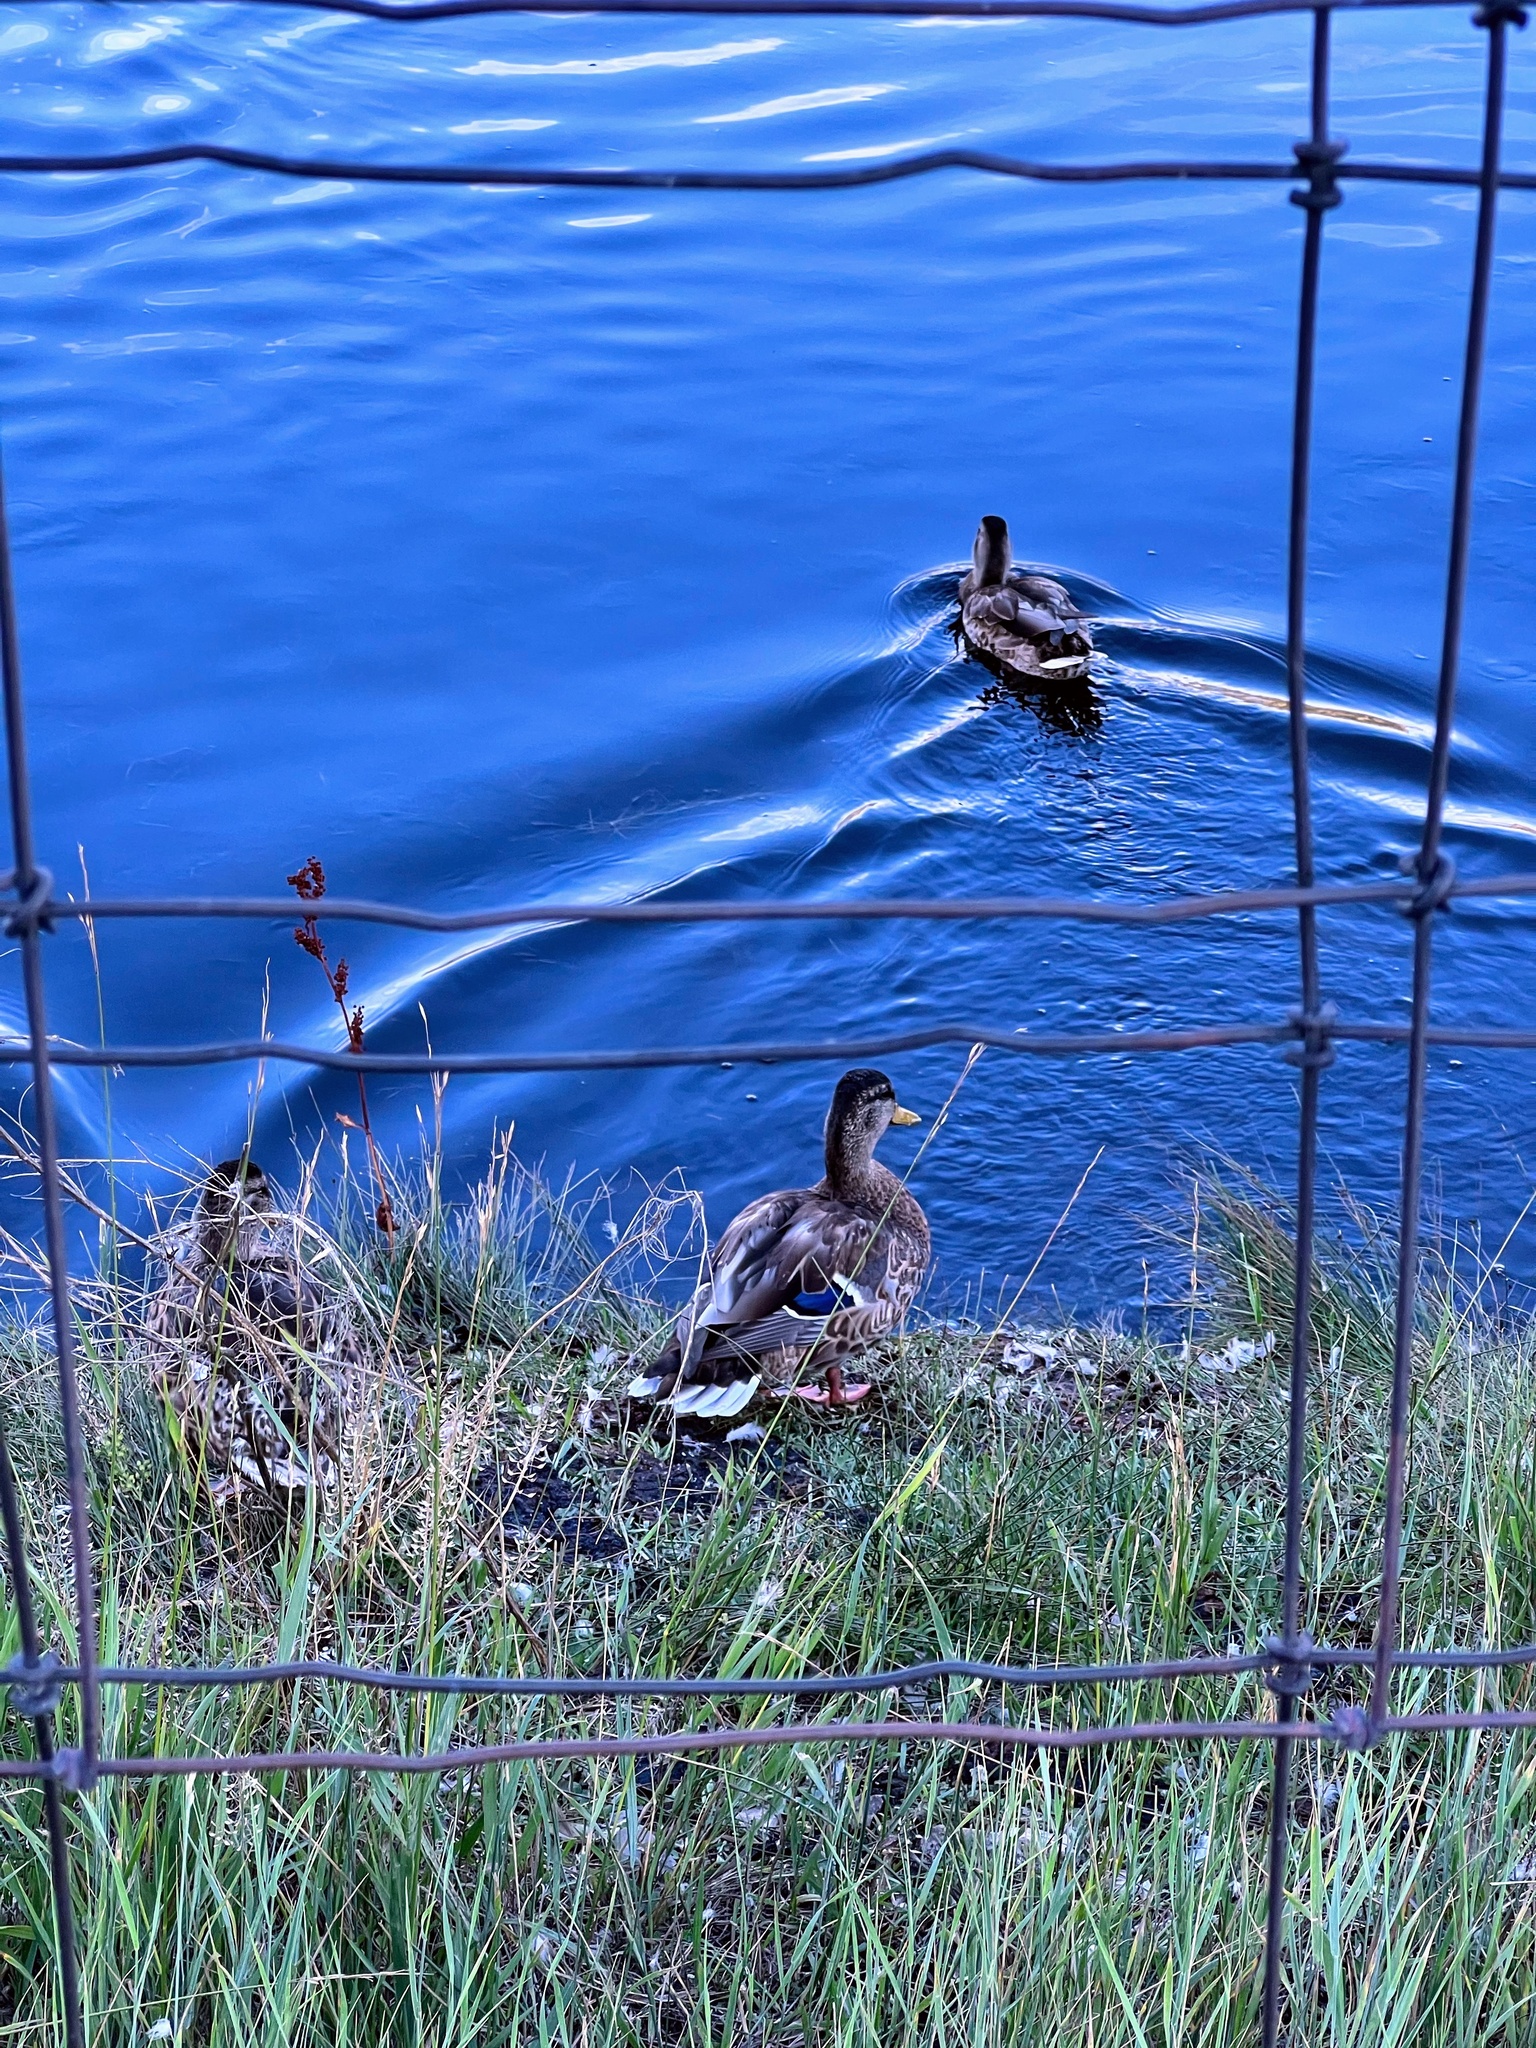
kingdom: Animalia
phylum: Chordata
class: Aves
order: Anseriformes
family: Anatidae
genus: Anas
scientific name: Anas platyrhynchos
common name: Mallard
